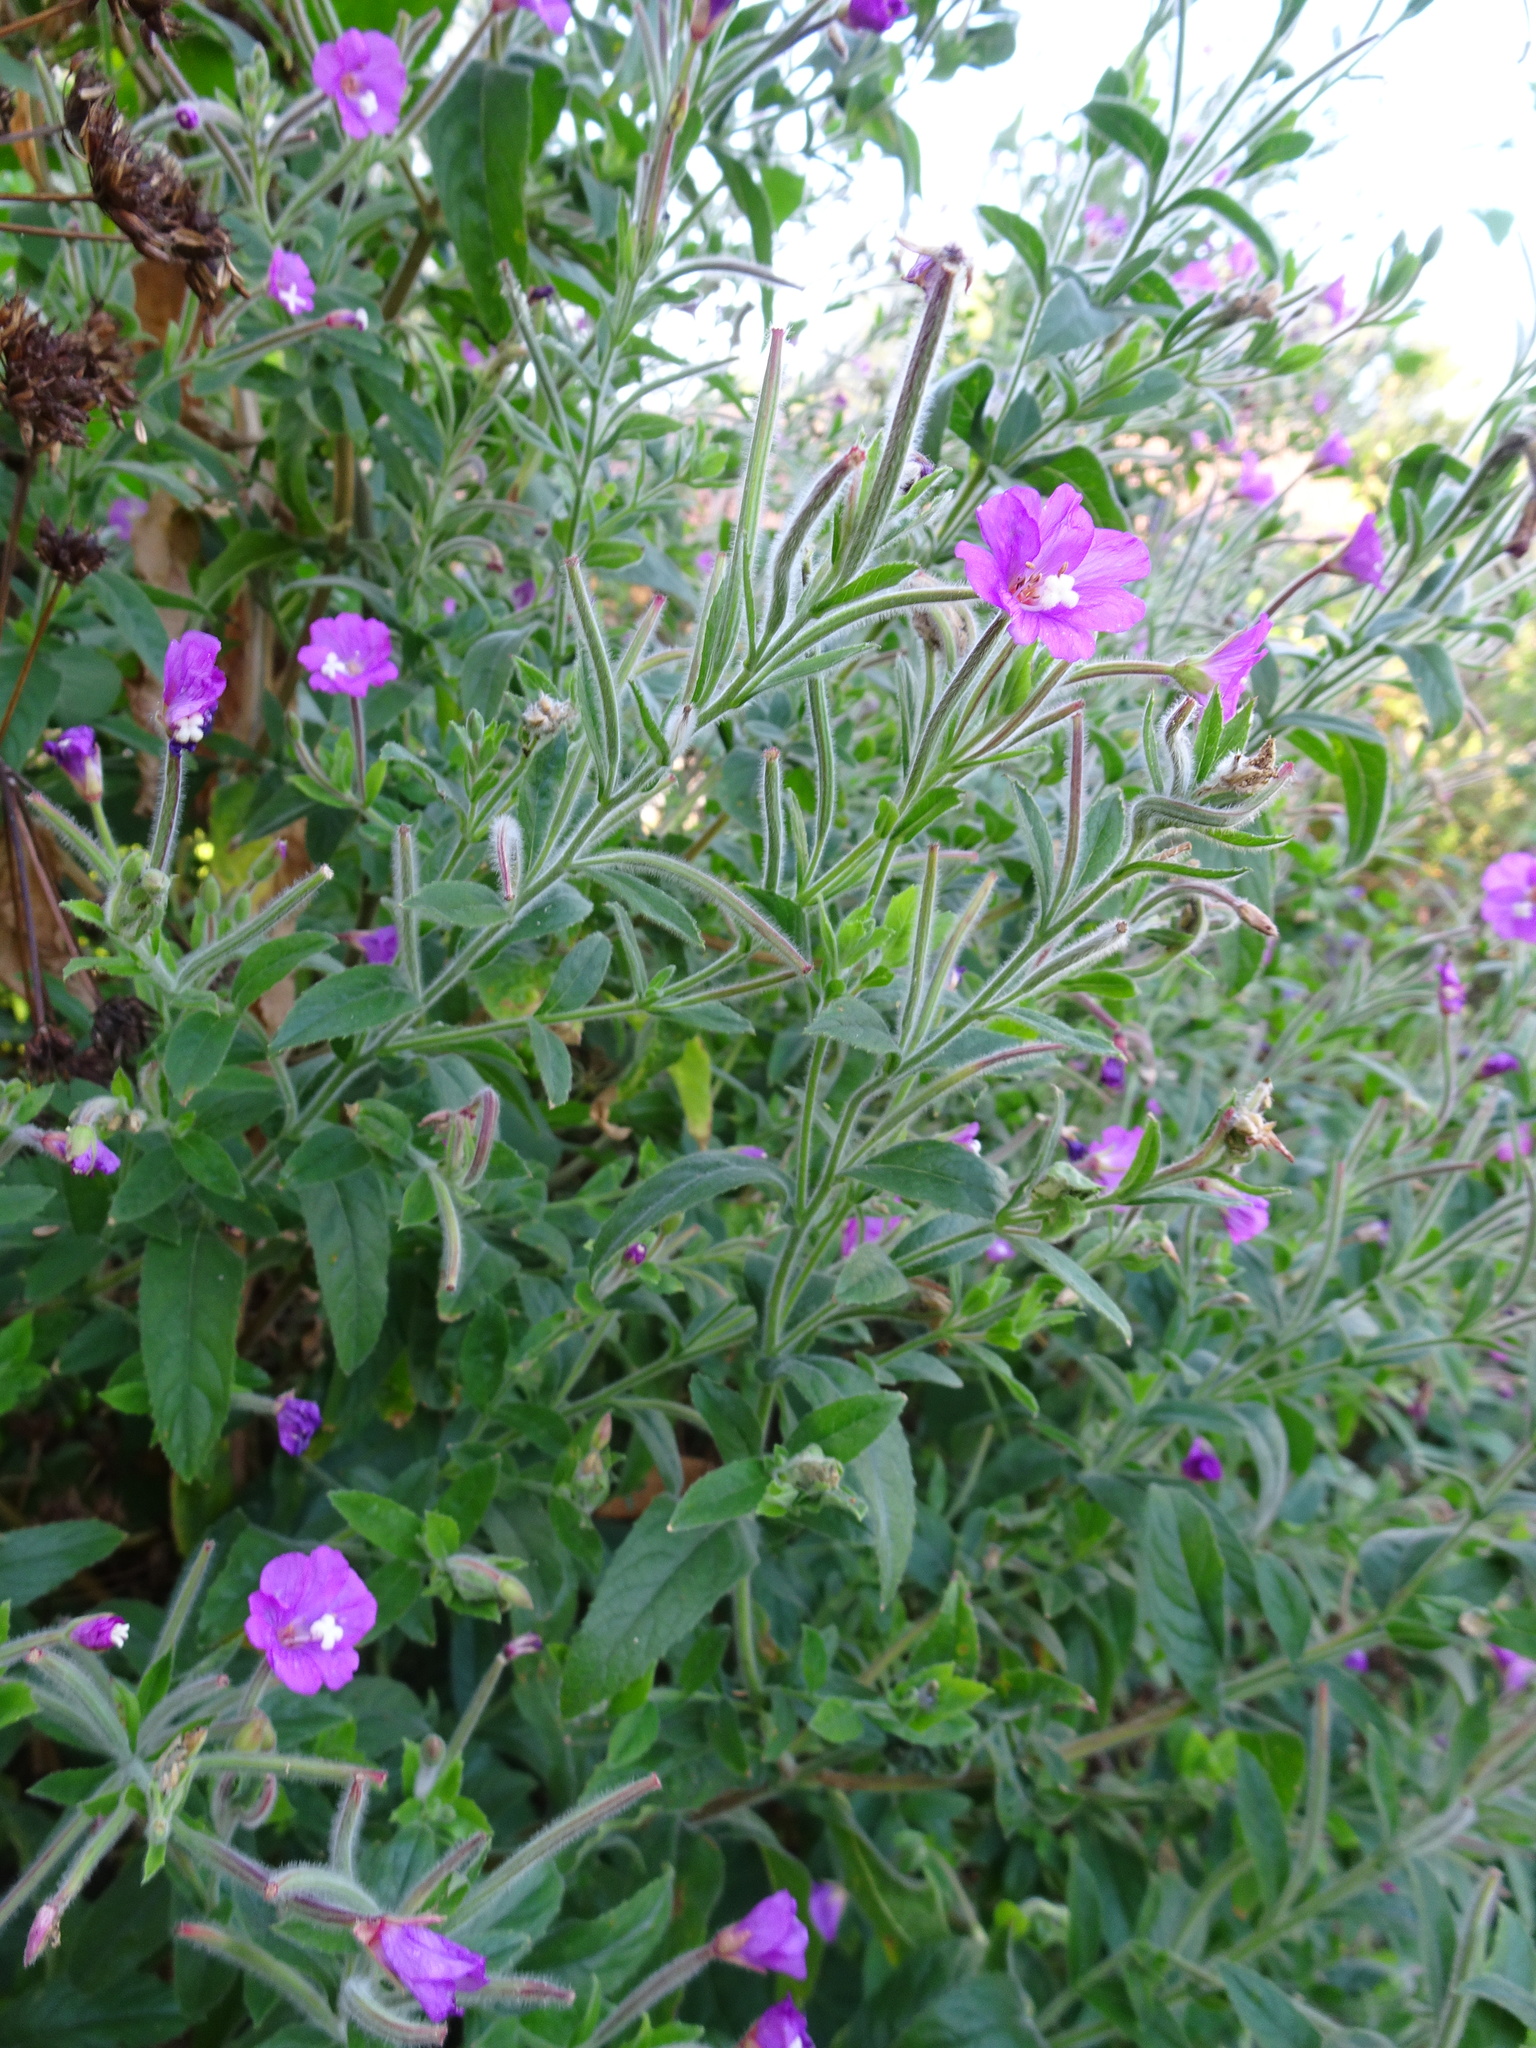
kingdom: Plantae
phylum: Tracheophyta
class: Magnoliopsida
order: Myrtales
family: Onagraceae
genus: Epilobium
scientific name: Epilobium hirsutum
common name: Great willowherb
